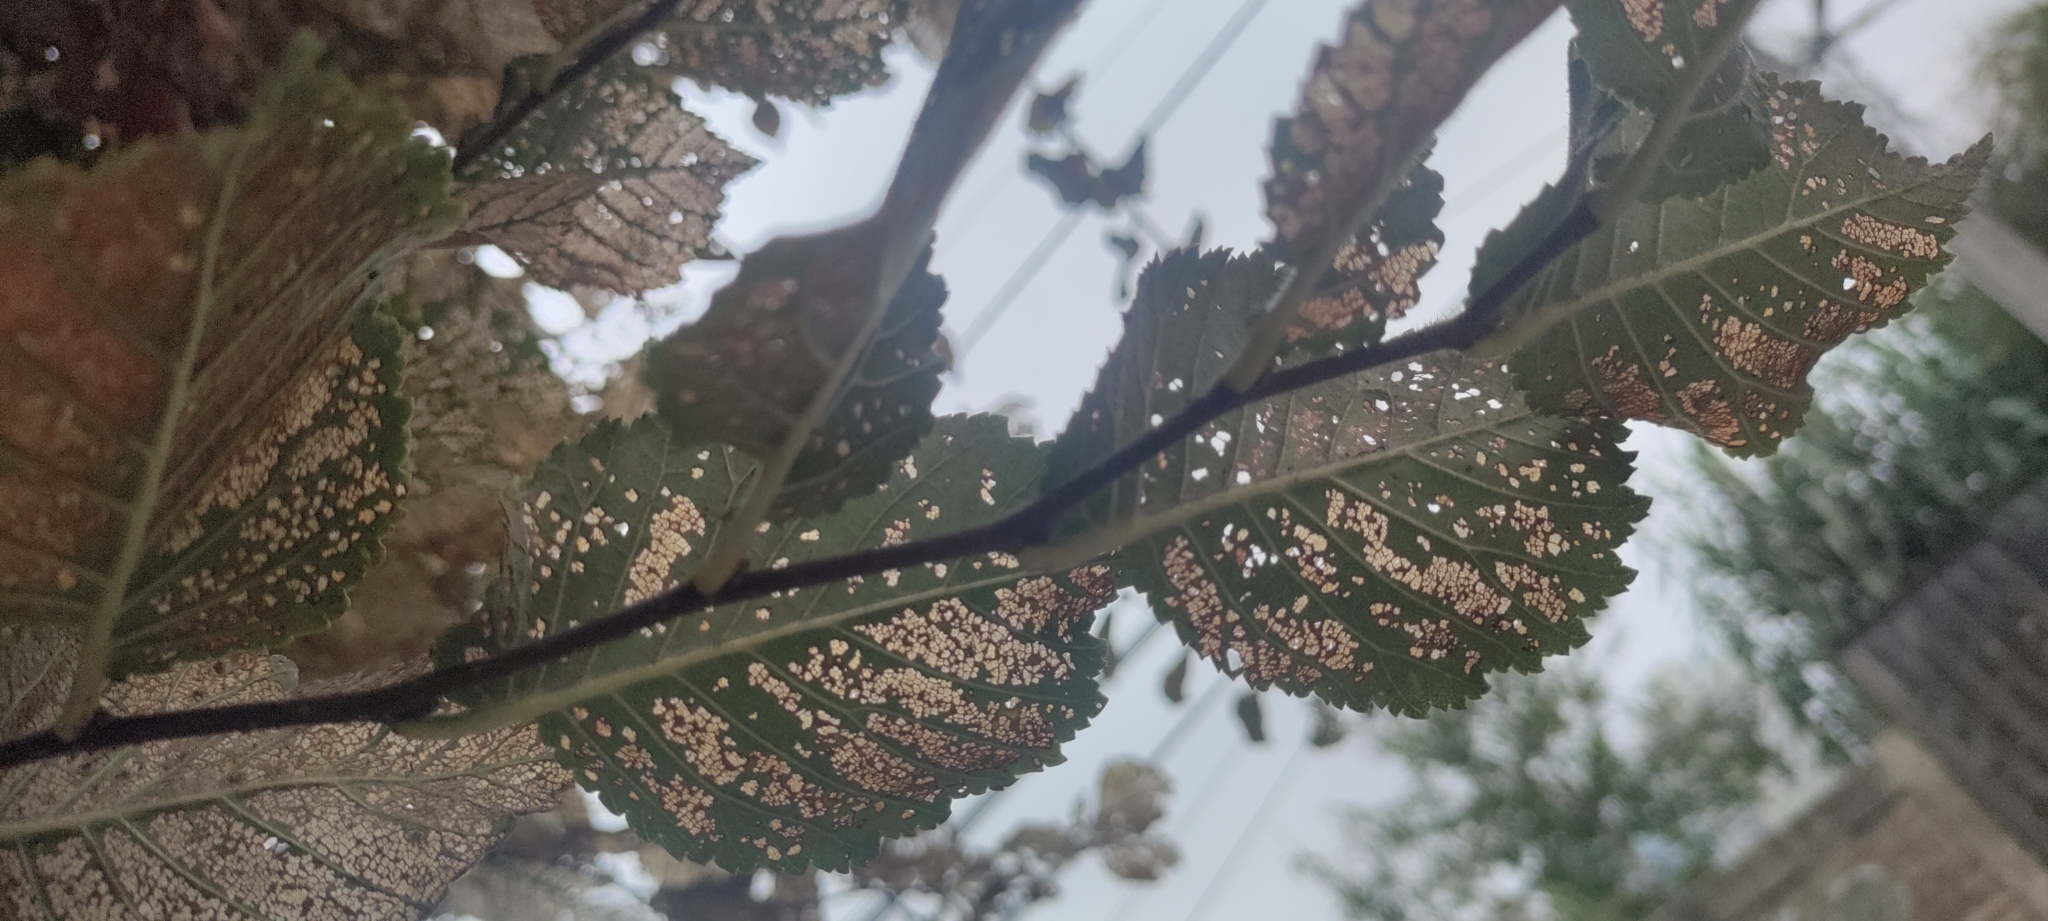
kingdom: Animalia
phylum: Arthropoda
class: Insecta
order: Coleoptera
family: Chrysomelidae
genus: Xanthogaleruca
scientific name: Xanthogaleruca luteola
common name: Elm leaf beetle
